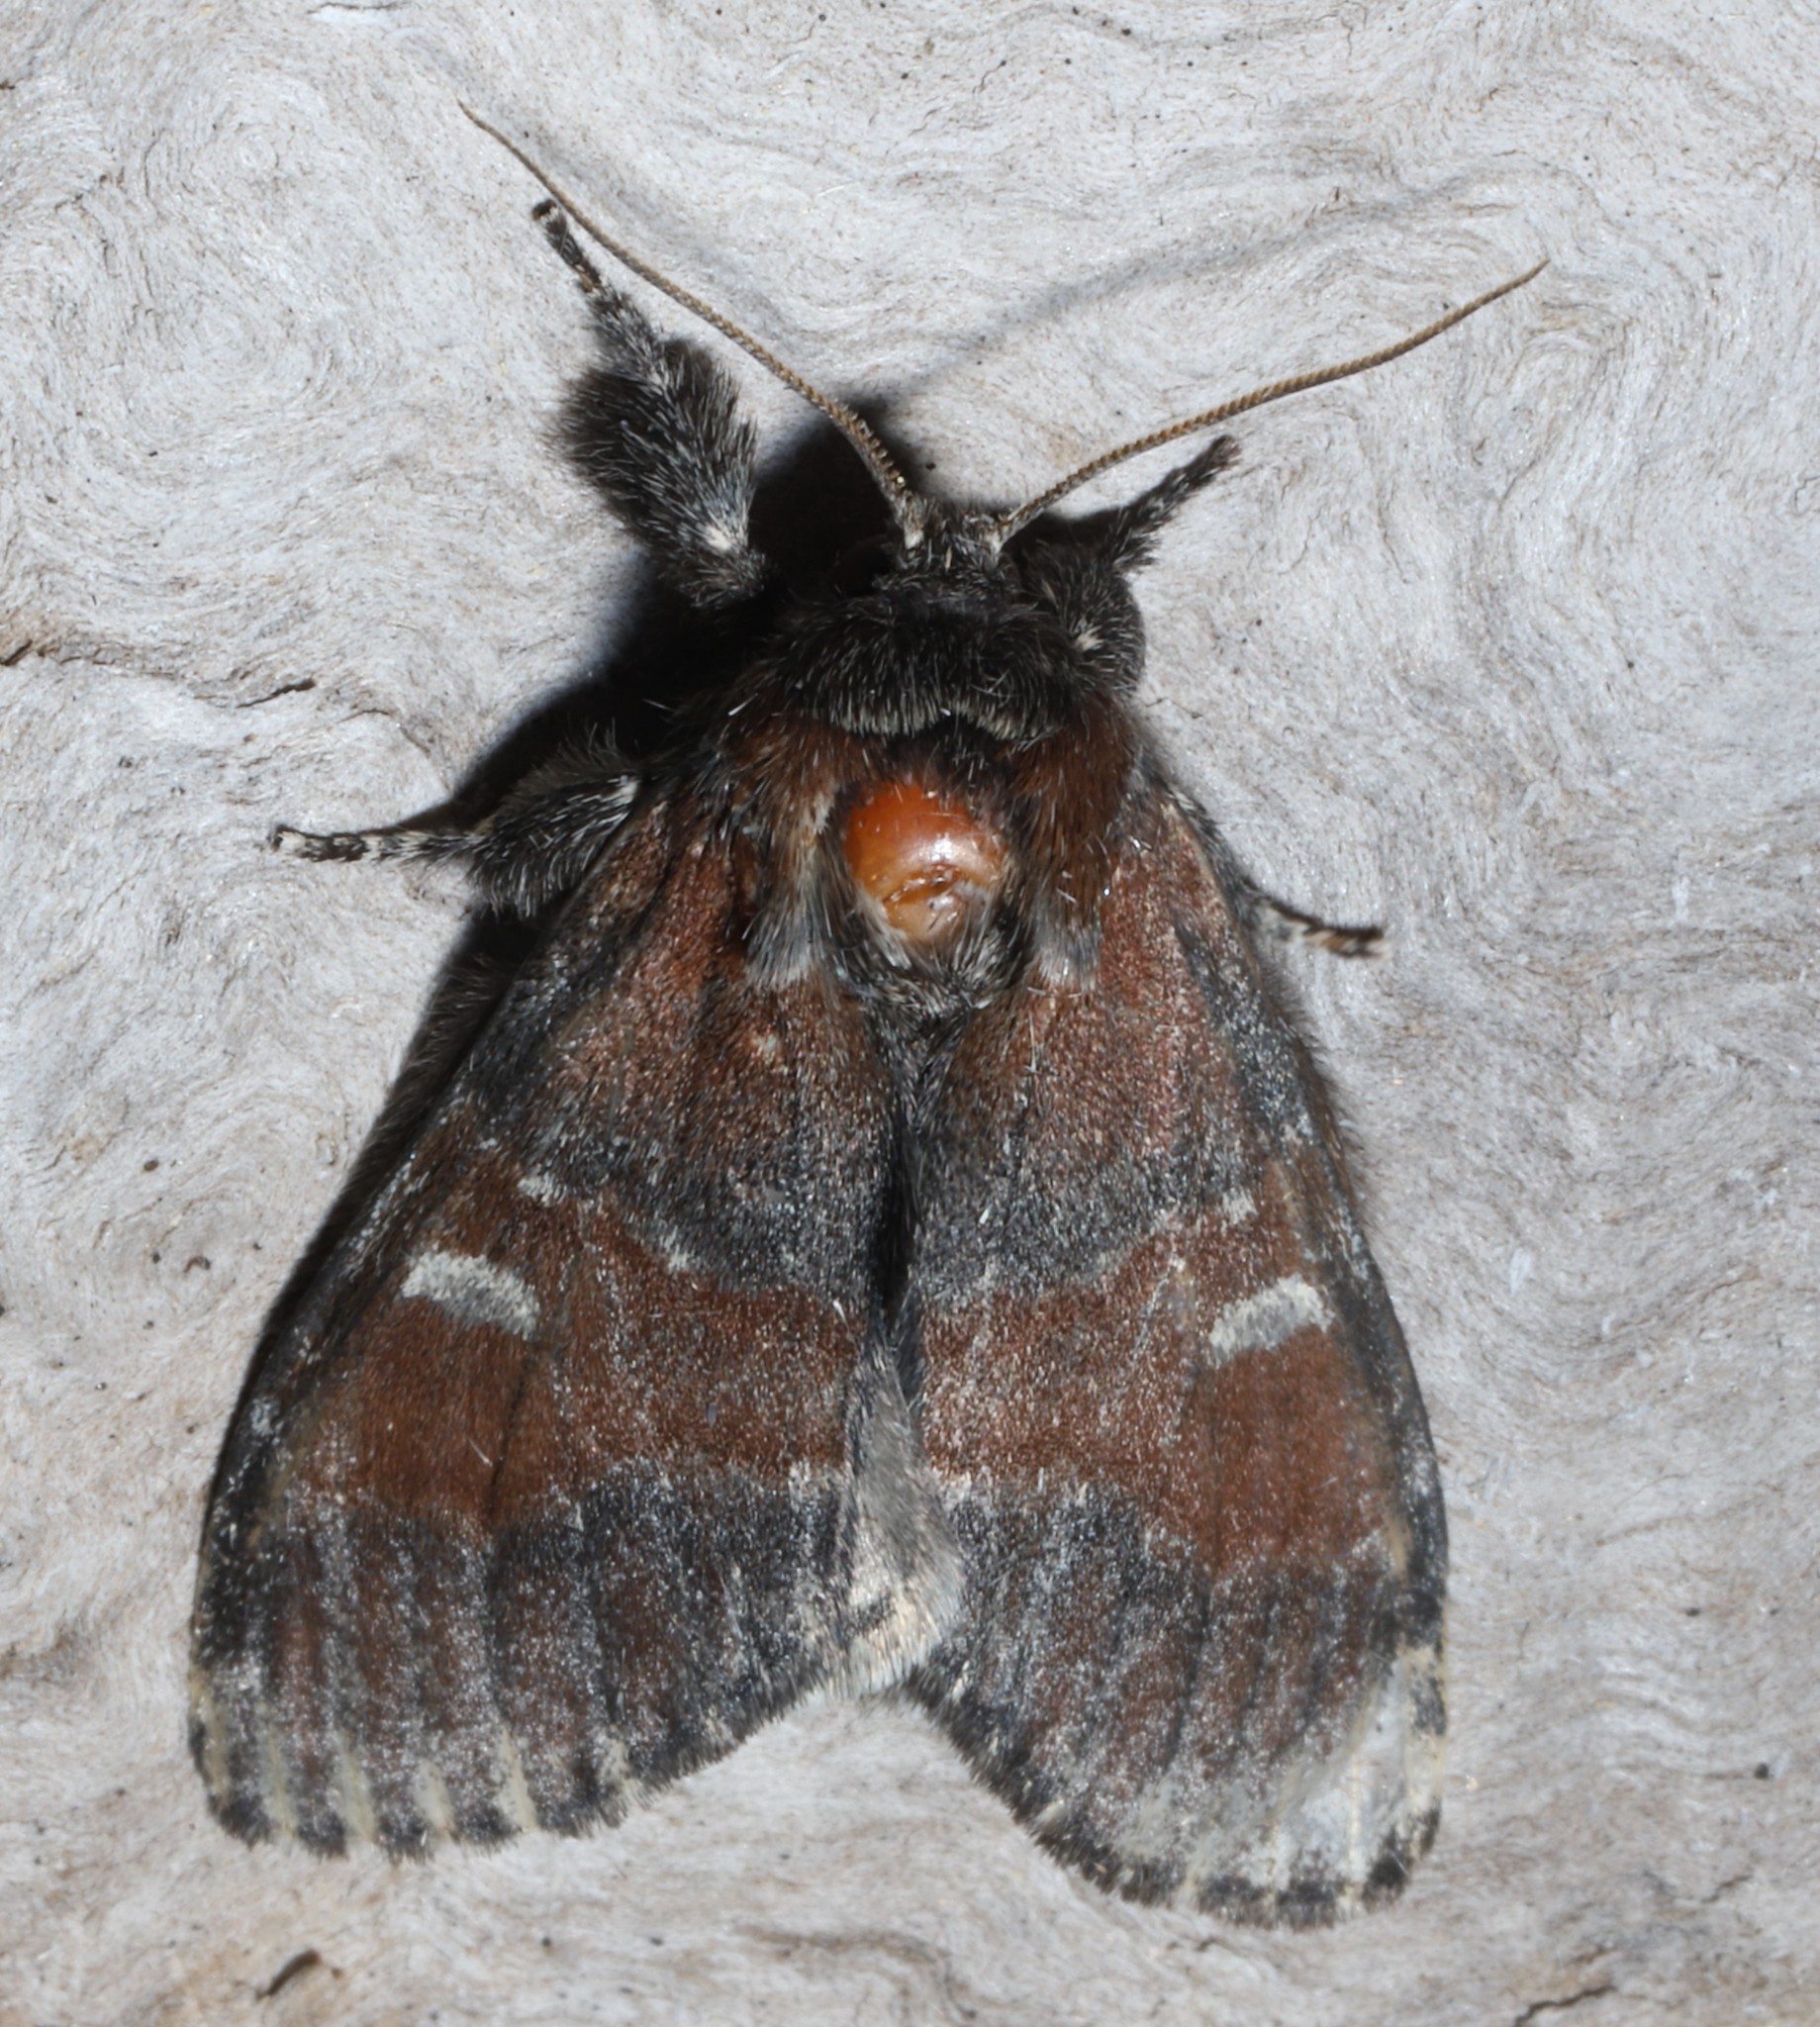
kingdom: Animalia
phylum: Arthropoda
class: Insecta
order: Lepidoptera
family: Notodontidae
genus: Peridea
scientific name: Peridea ferruginea
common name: Chocolate prominent
